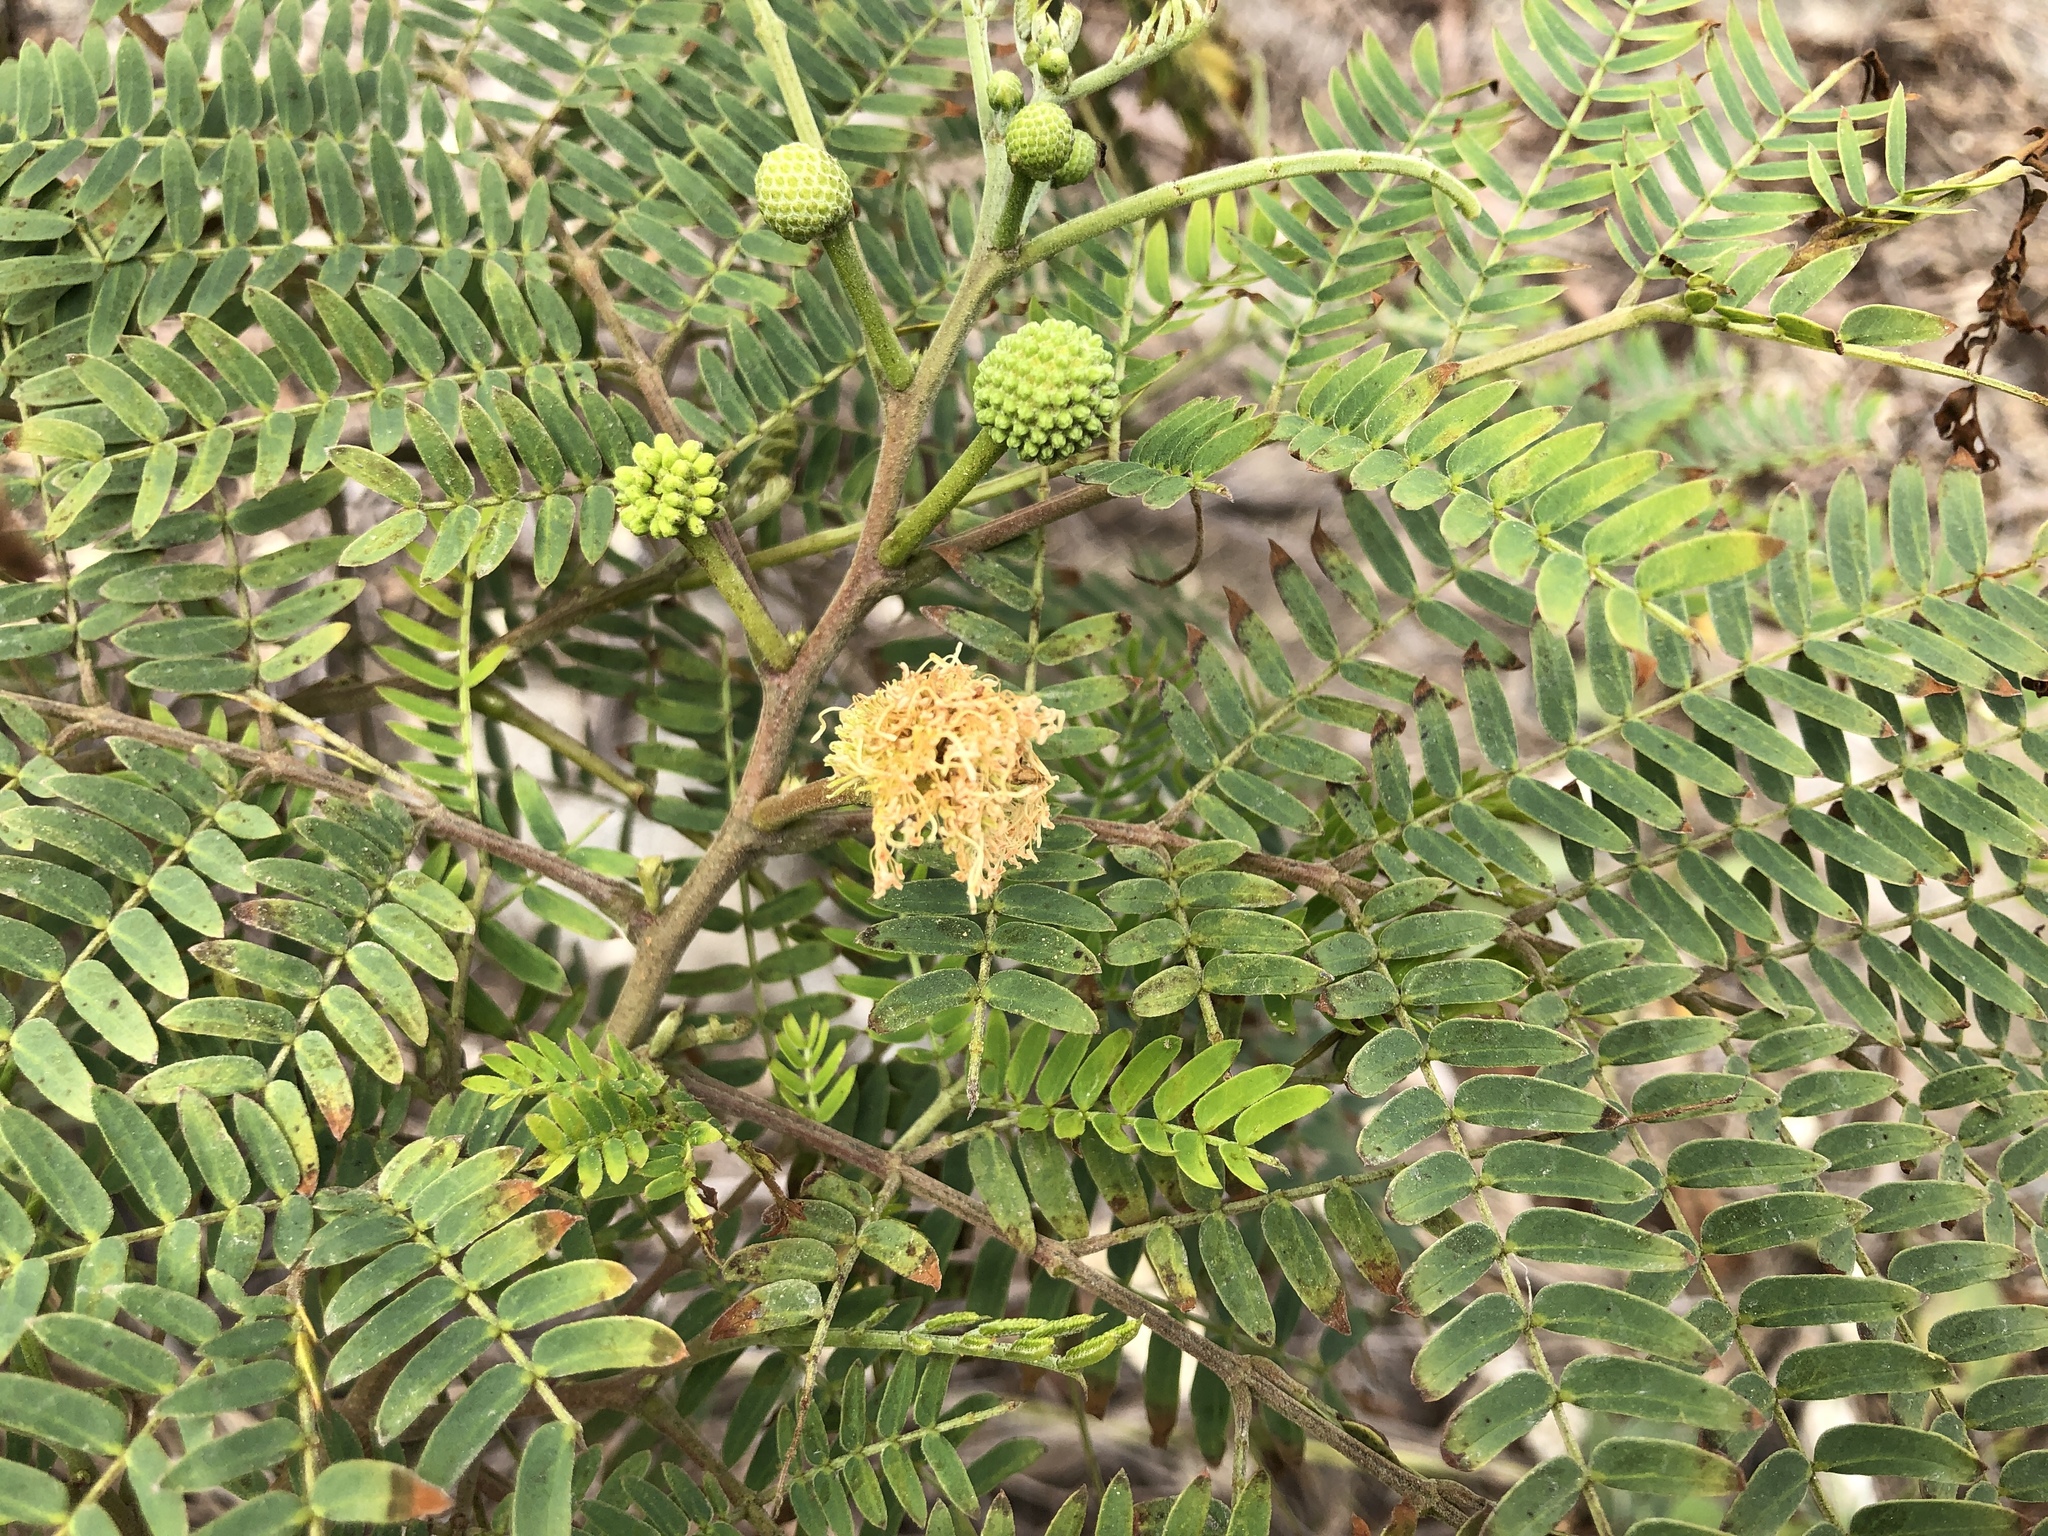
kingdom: Plantae
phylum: Tracheophyta
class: Magnoliopsida
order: Fabales
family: Fabaceae
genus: Leucaena
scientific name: Leucaena leucocephala
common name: White leadtree
